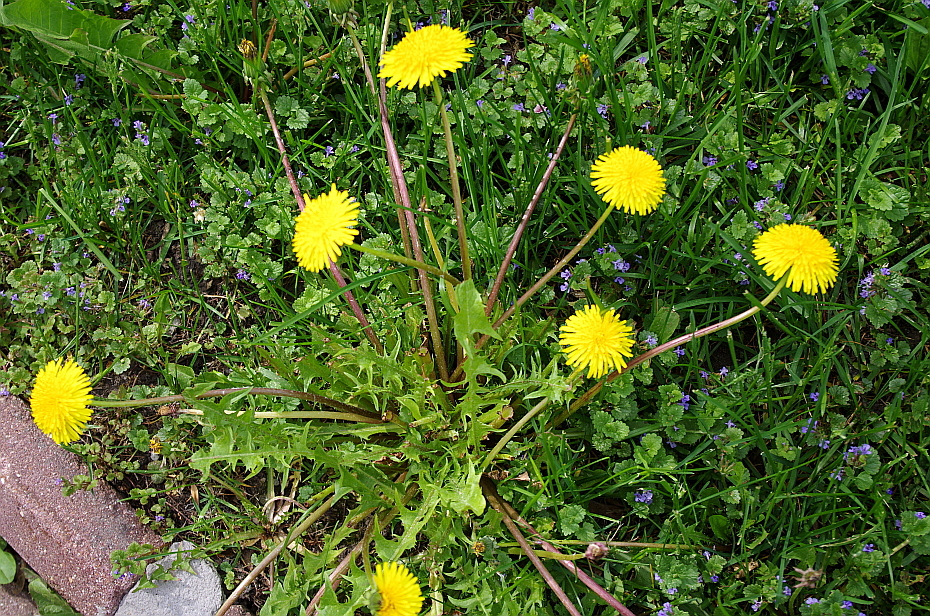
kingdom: Plantae
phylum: Tracheophyta
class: Magnoliopsida
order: Asterales
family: Asteraceae
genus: Taraxacum
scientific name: Taraxacum officinale
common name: Common dandelion
